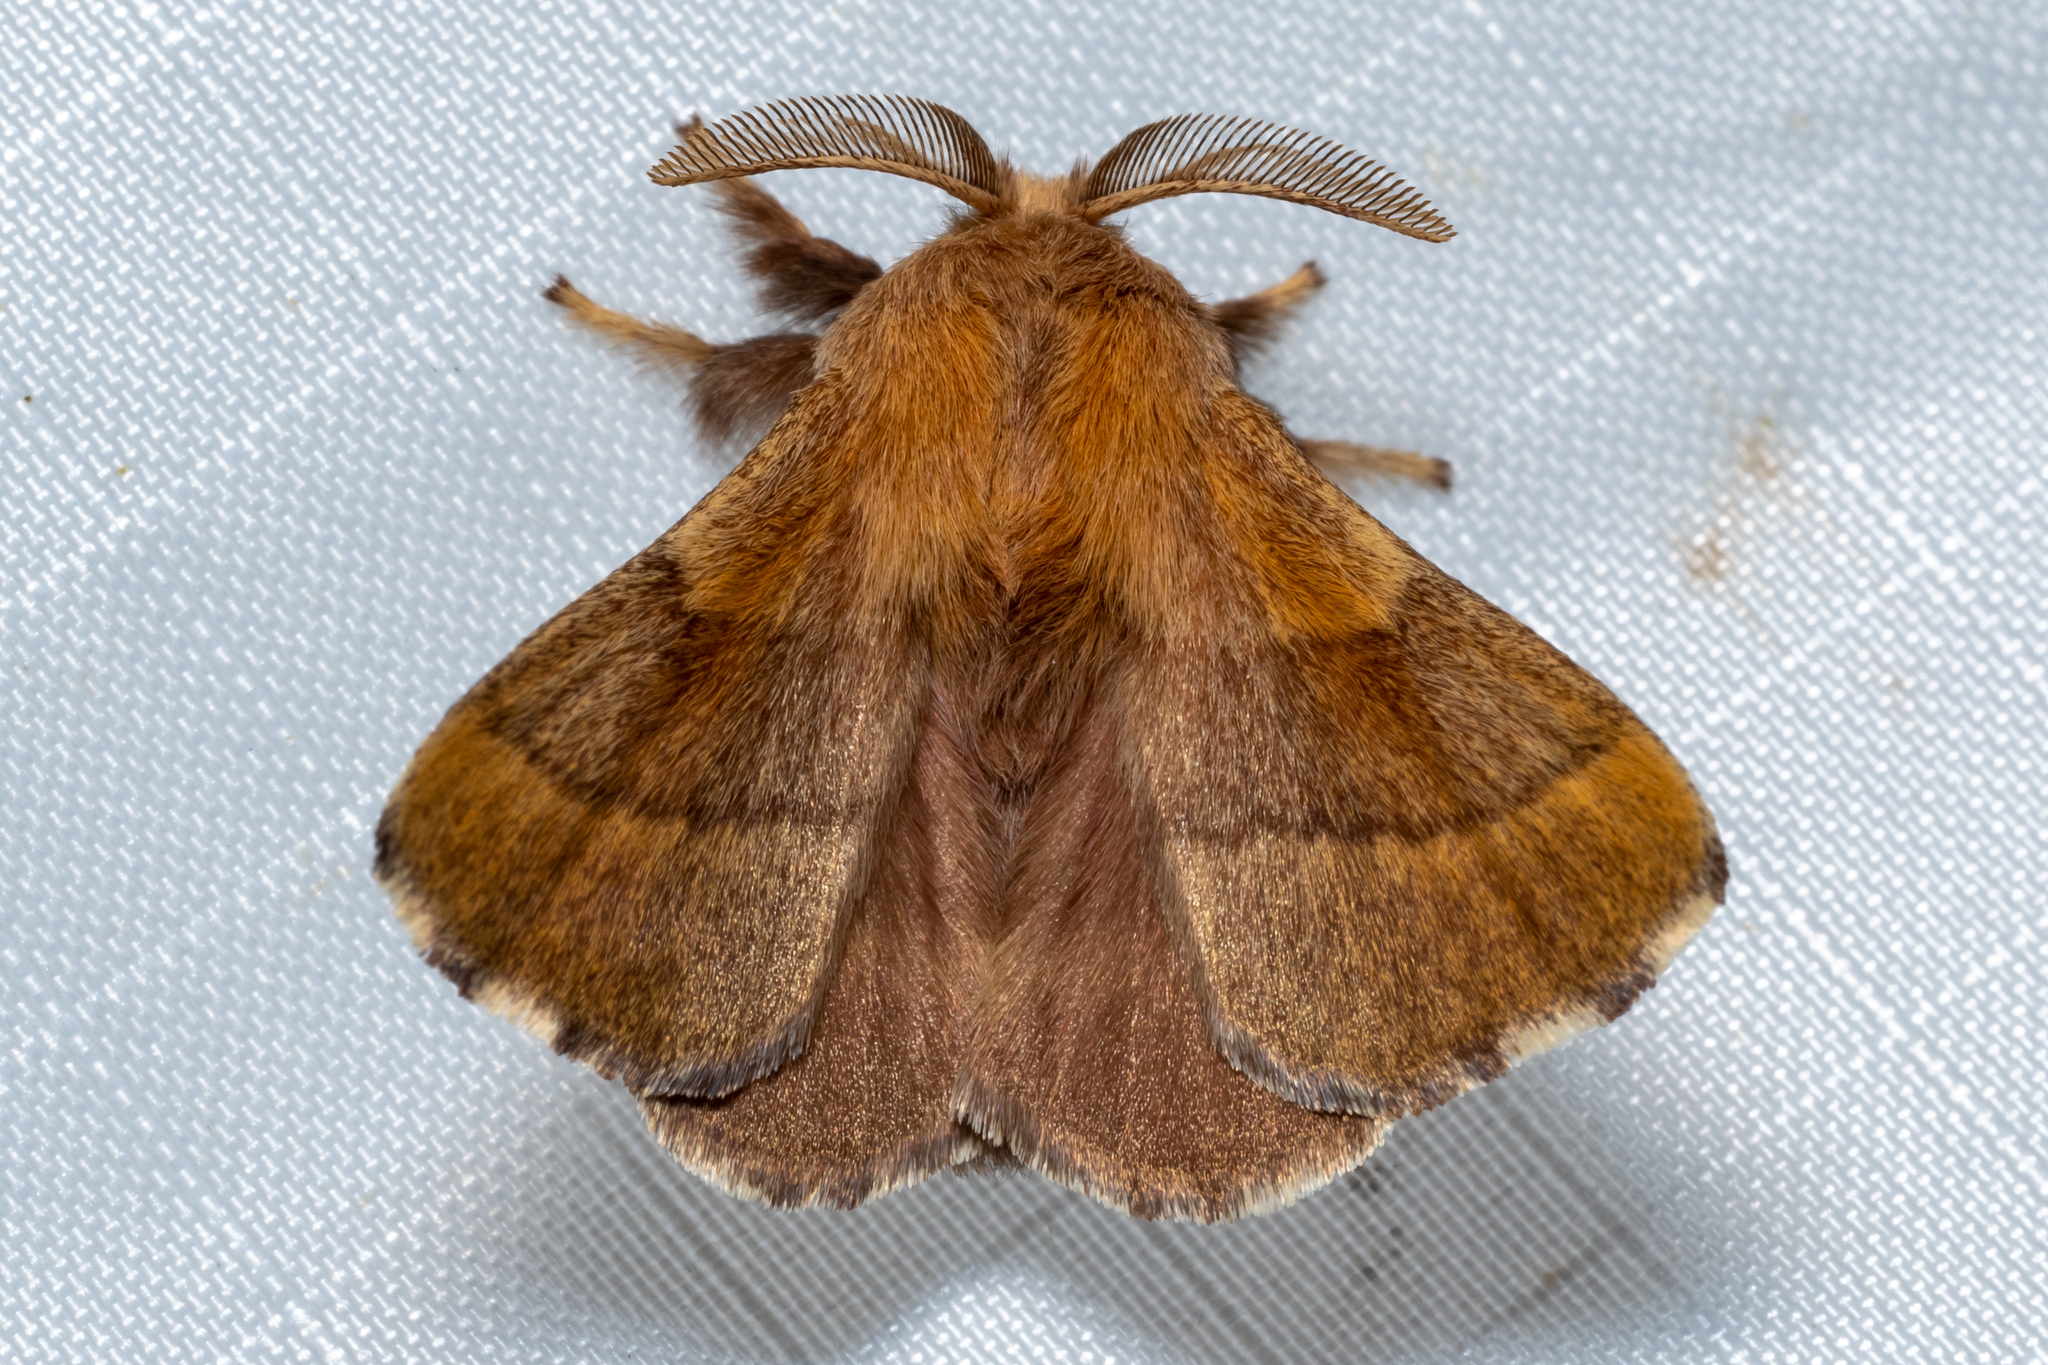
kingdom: Animalia
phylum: Arthropoda
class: Insecta
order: Lepidoptera
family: Lasiocampidae
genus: Malacosoma
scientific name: Malacosoma disstria
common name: Forest tent caterpillar
